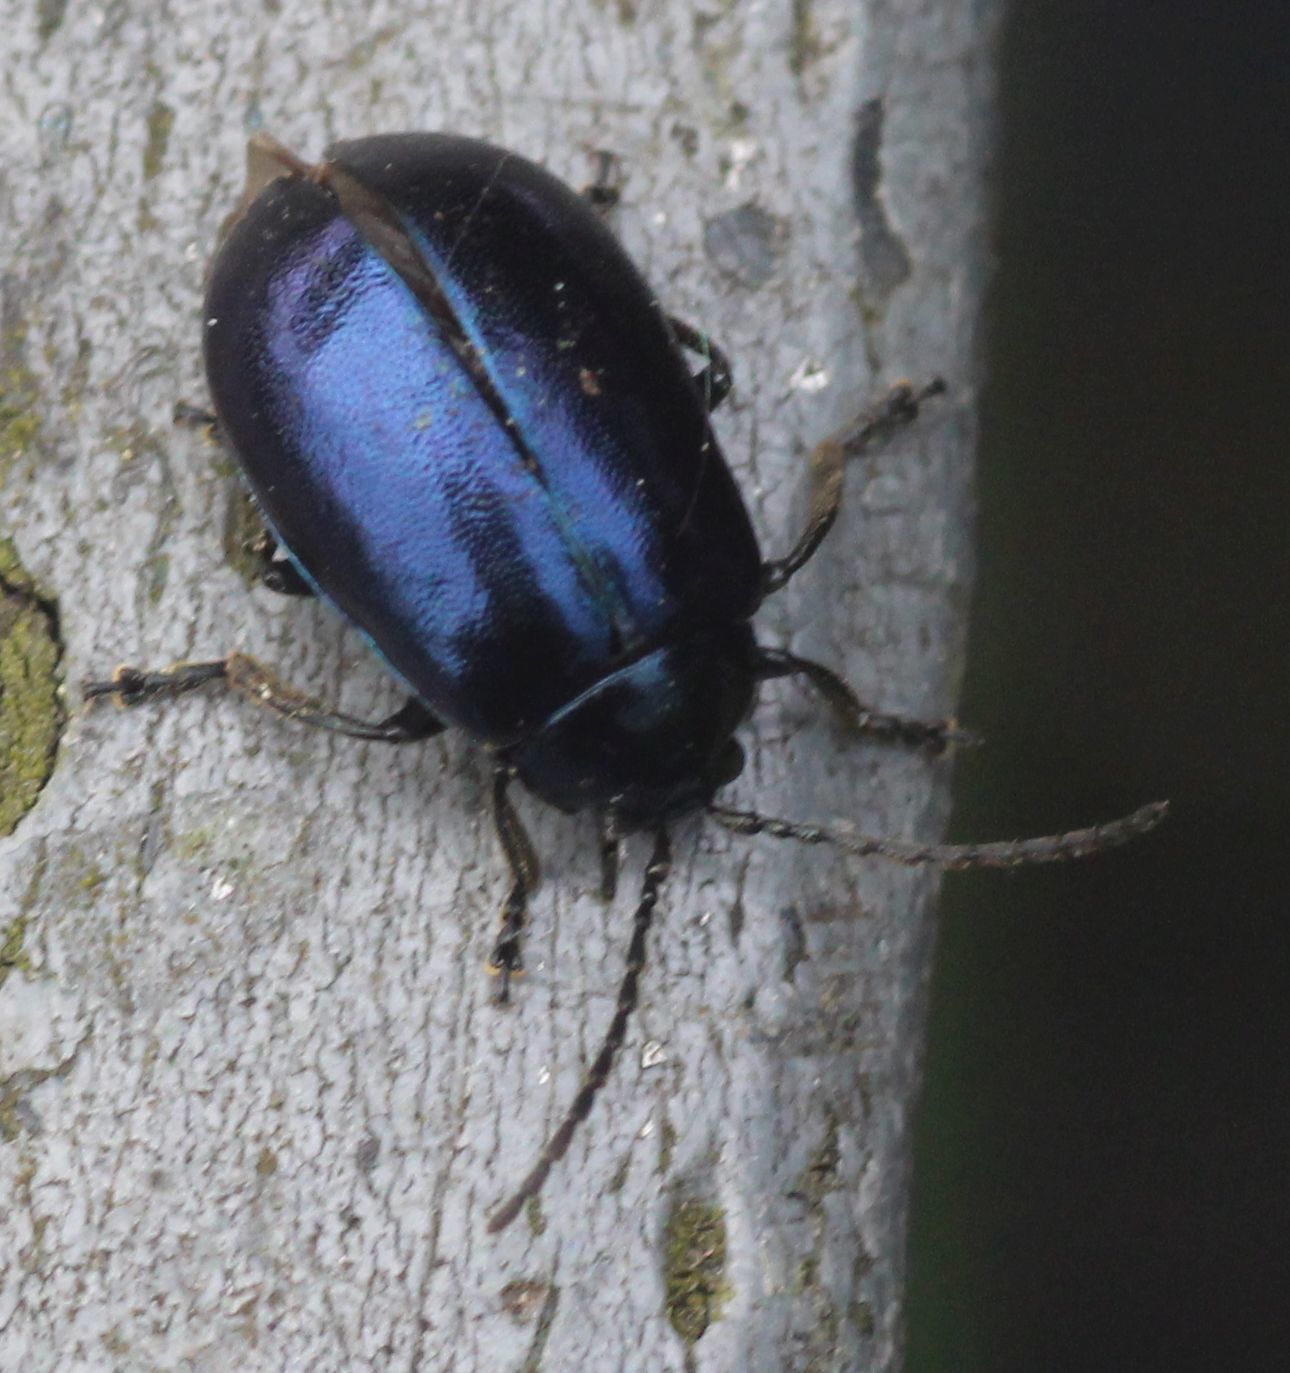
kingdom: Animalia
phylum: Arthropoda
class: Insecta
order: Coleoptera
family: Chrysomelidae
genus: Agelastica
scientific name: Agelastica alni
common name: Alder leaf beetle
